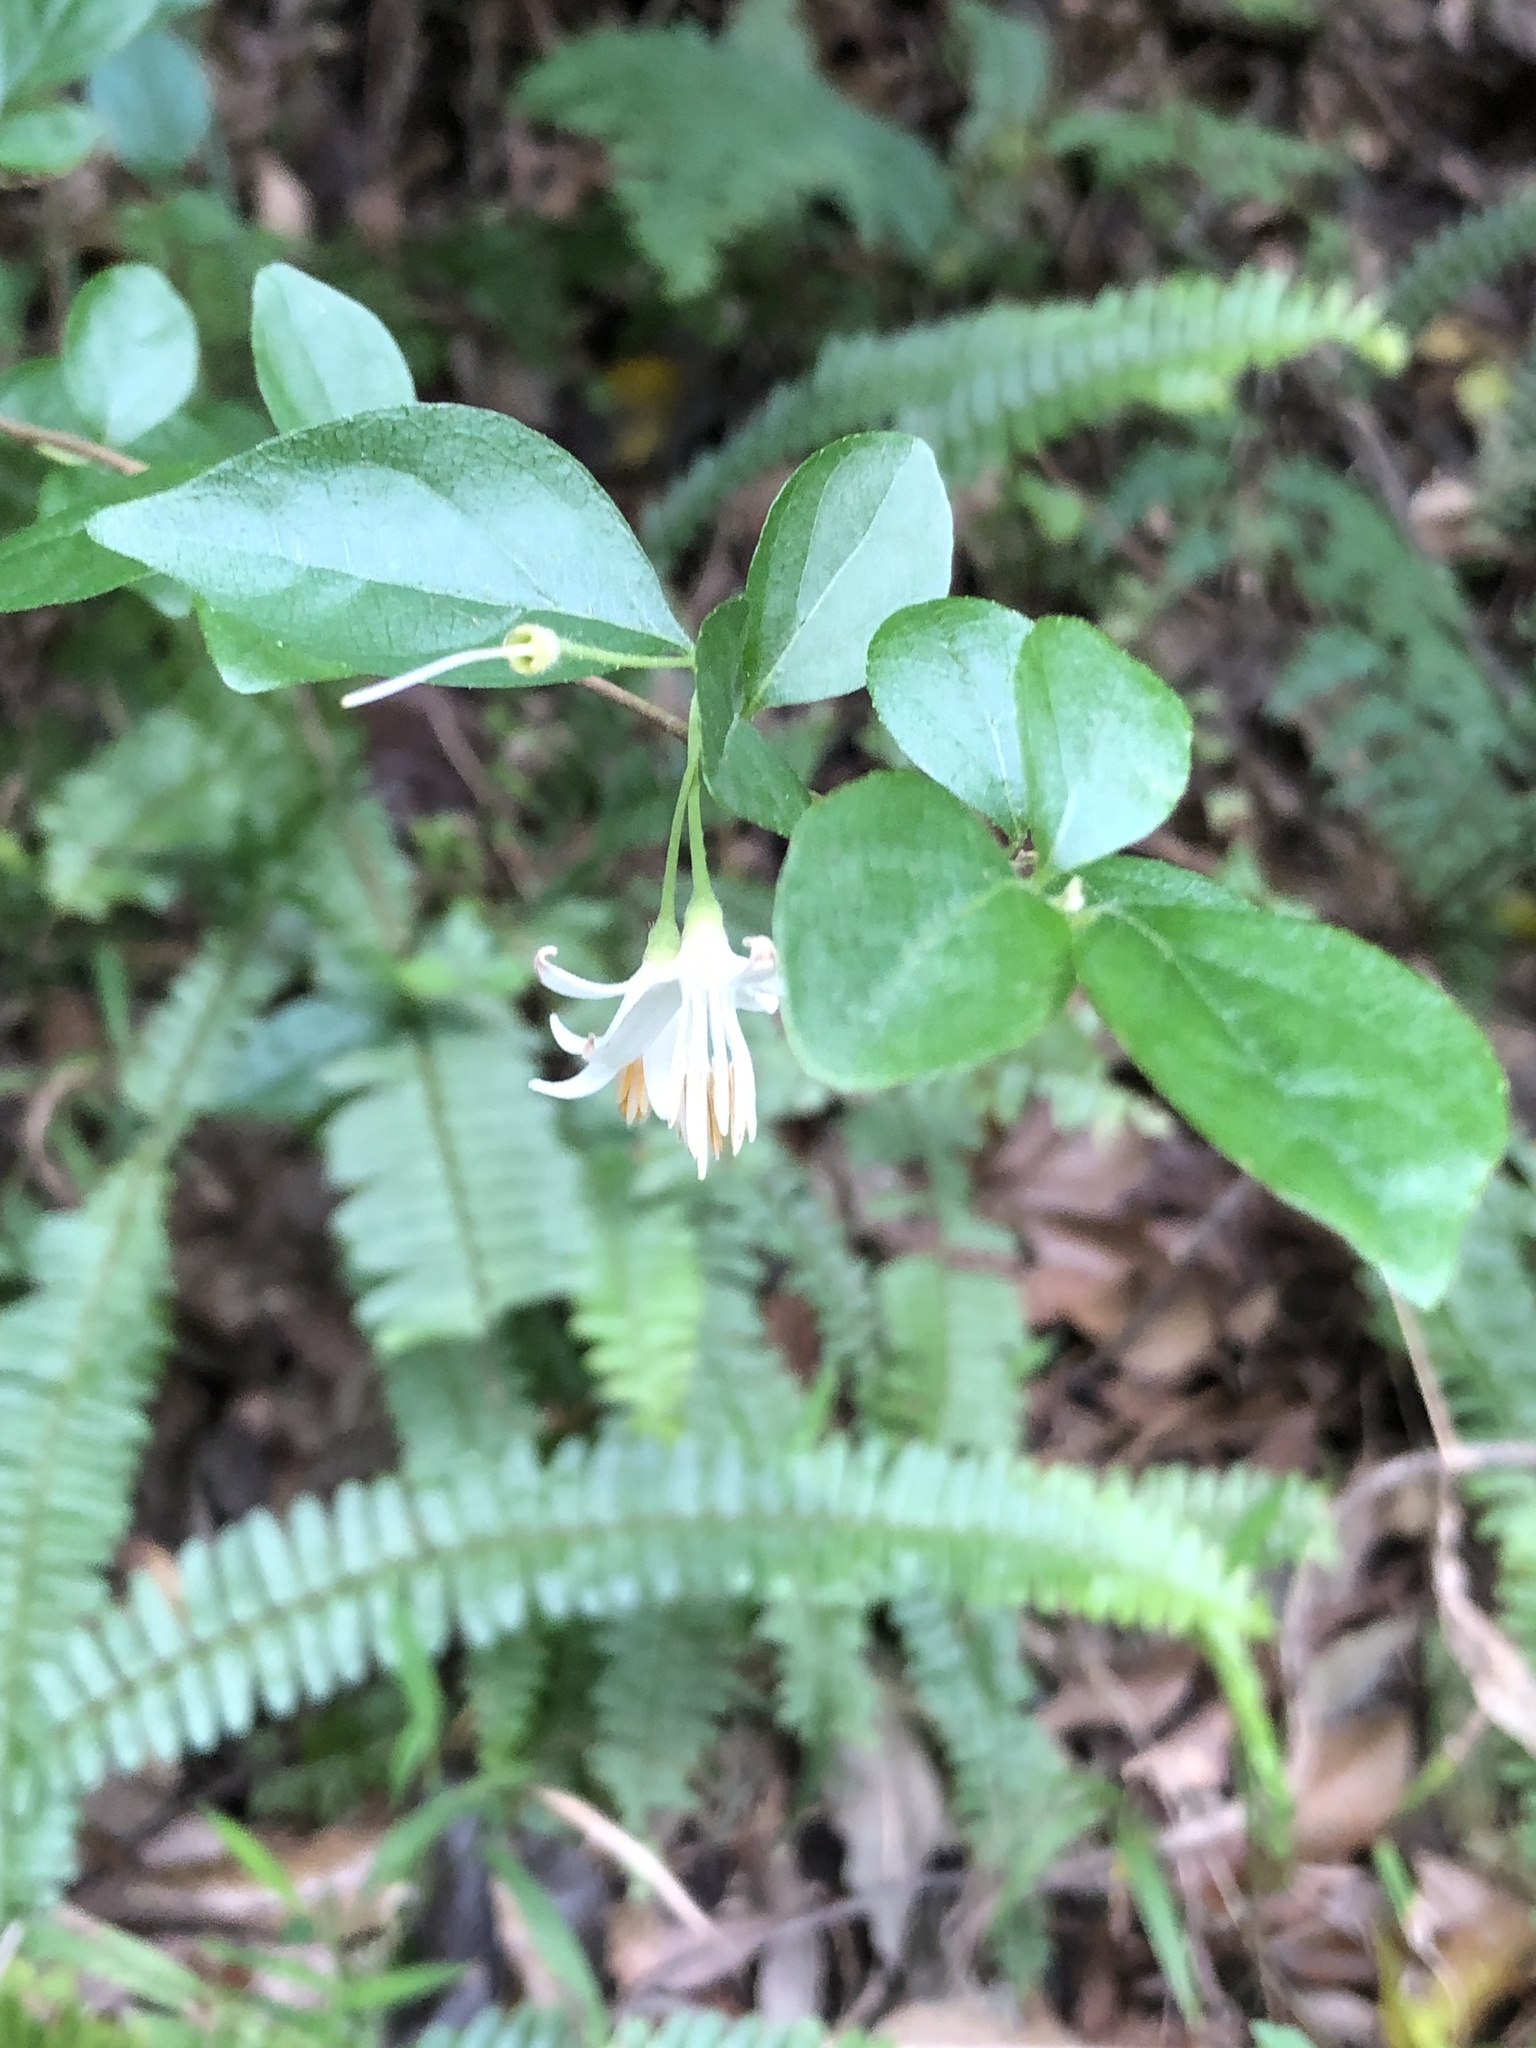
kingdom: Plantae
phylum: Tracheophyta
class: Magnoliopsida
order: Ericales
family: Styracaceae
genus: Styrax
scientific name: Styrax formosanus
